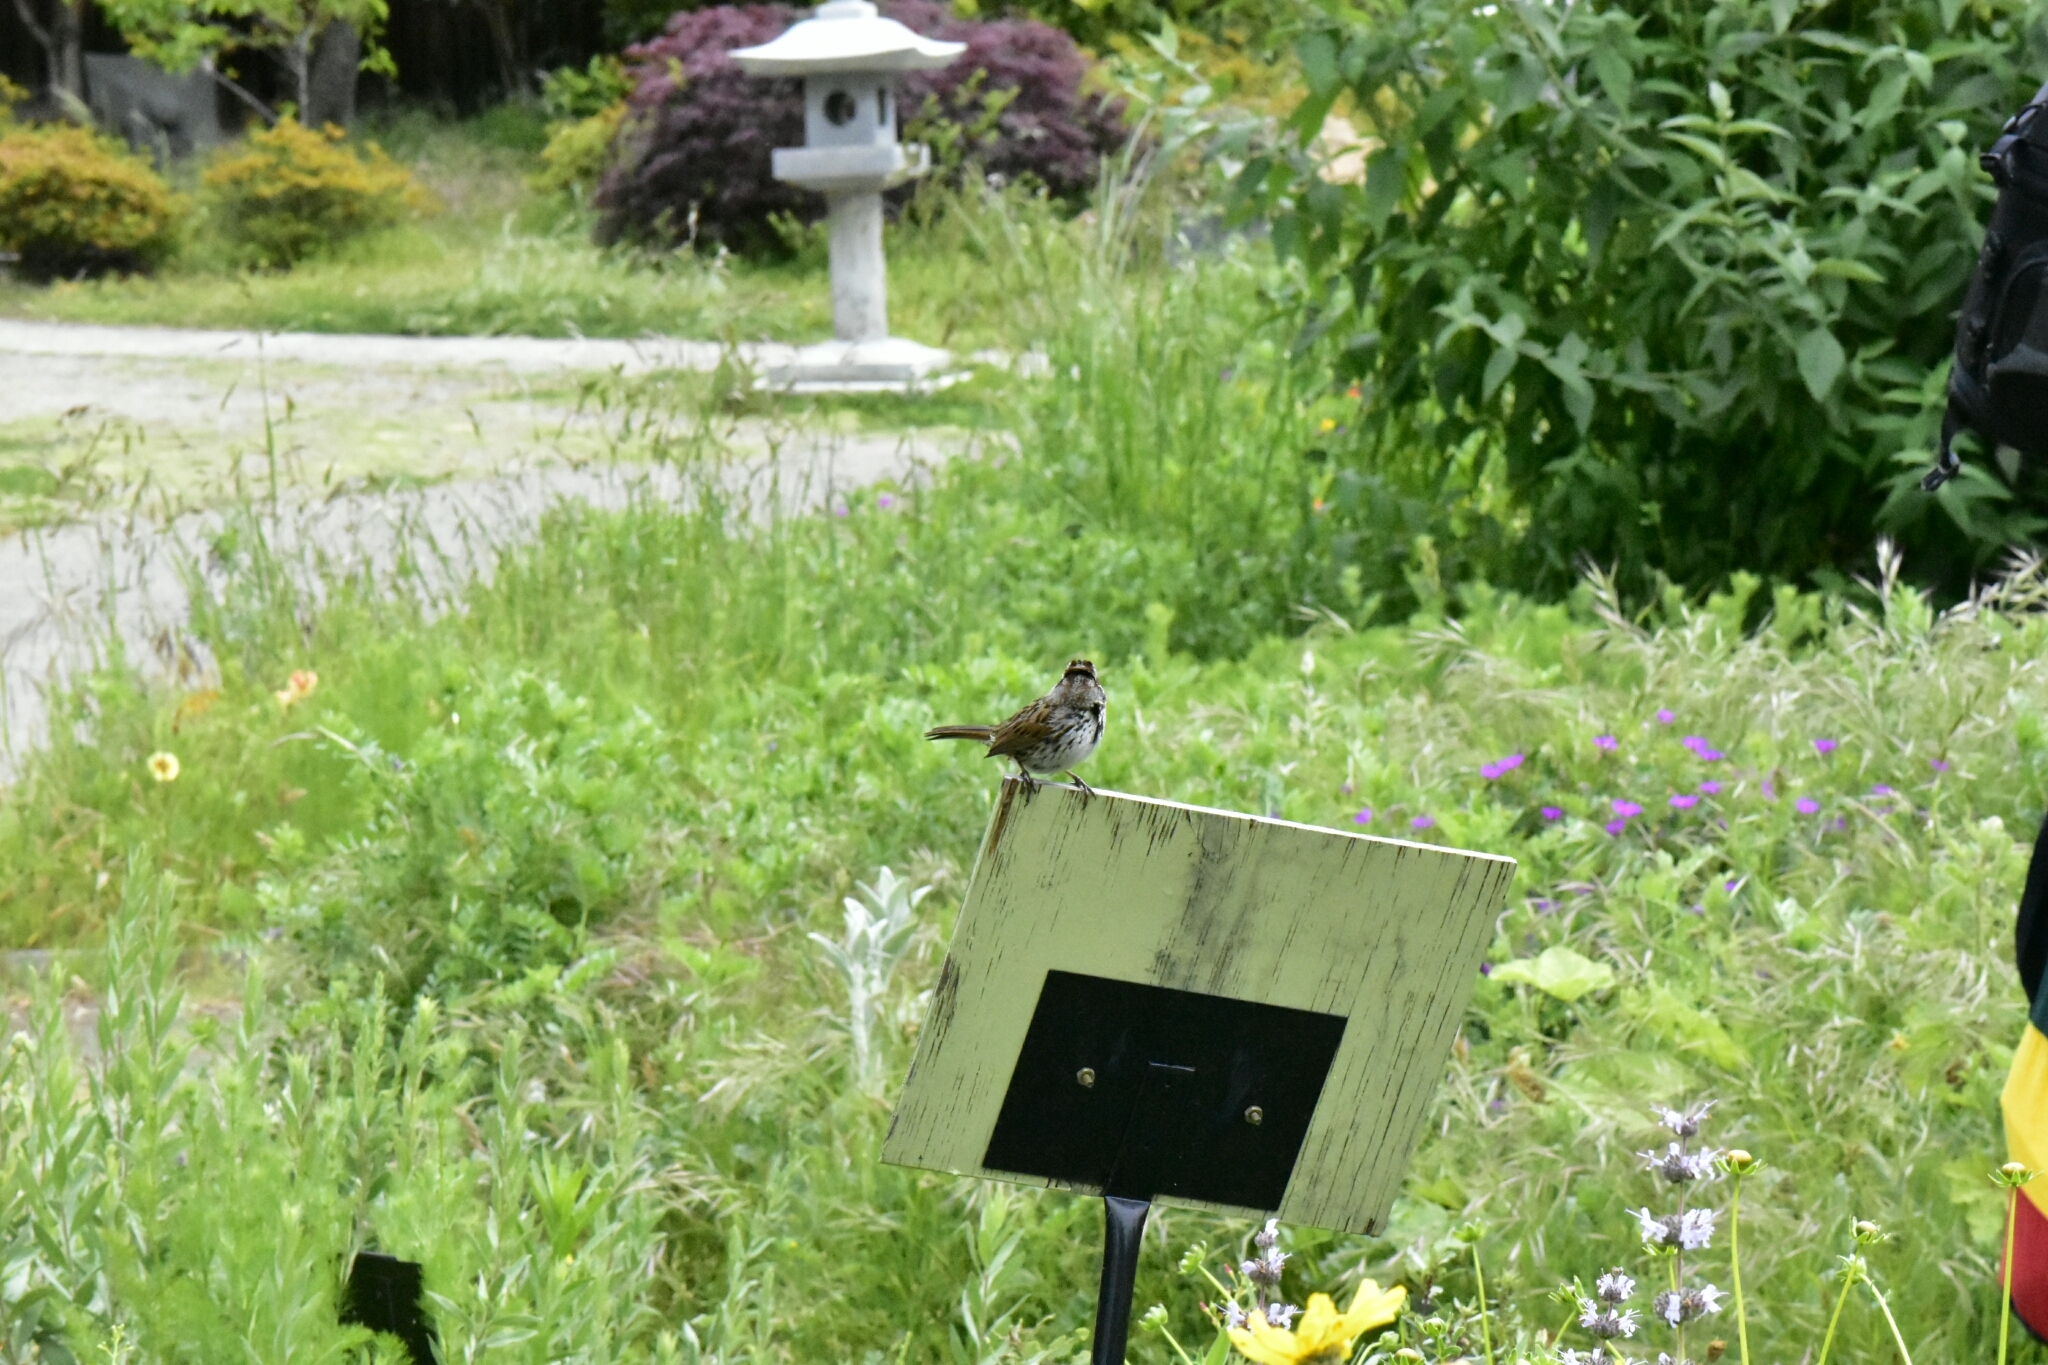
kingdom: Animalia
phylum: Chordata
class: Aves
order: Passeriformes
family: Passerellidae
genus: Melospiza
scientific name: Melospiza melodia
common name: Song sparrow
